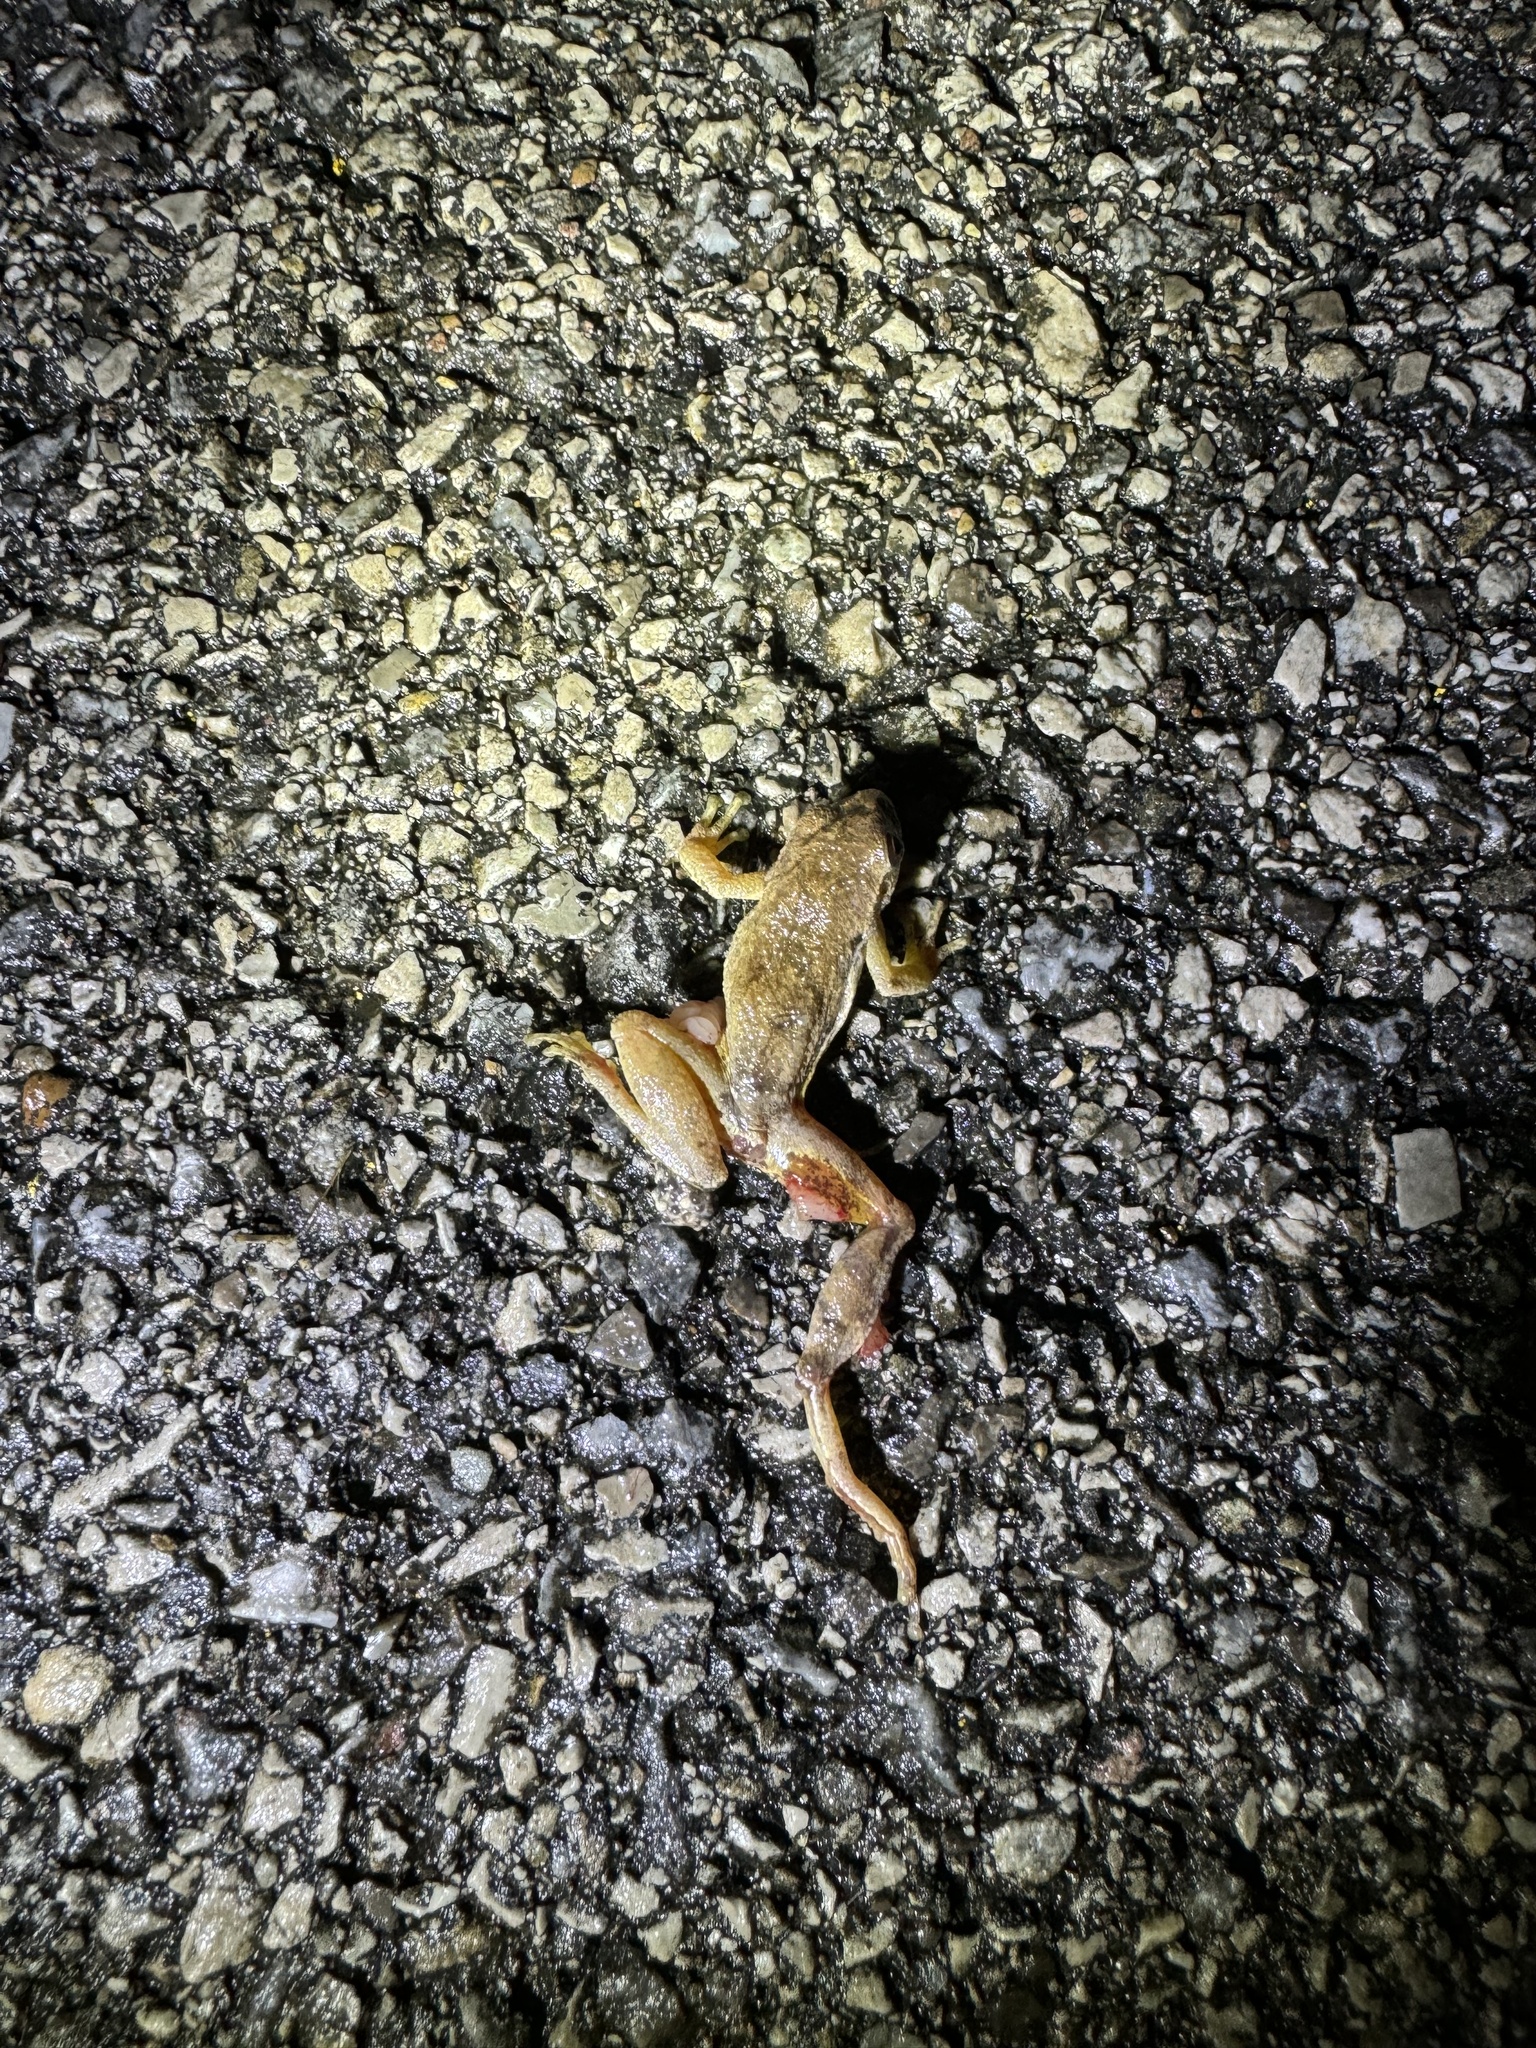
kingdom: Animalia
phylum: Chordata
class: Amphibia
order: Anura
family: Hylidae
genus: Pseudacris
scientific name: Pseudacris crucifer
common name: Spring peeper
